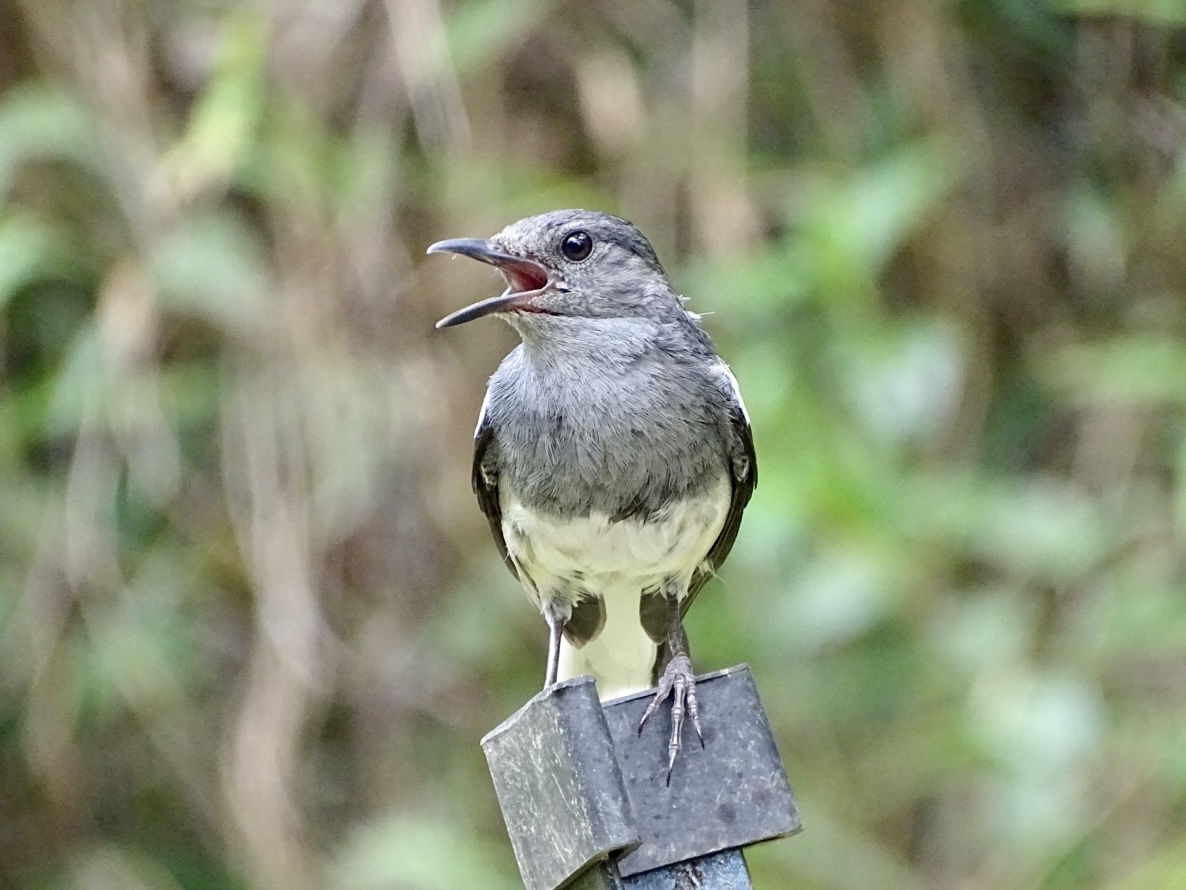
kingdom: Animalia
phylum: Chordata
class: Aves
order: Passeriformes
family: Muscicapidae
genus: Copsychus
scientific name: Copsychus saularis
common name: Oriental magpie-robin
